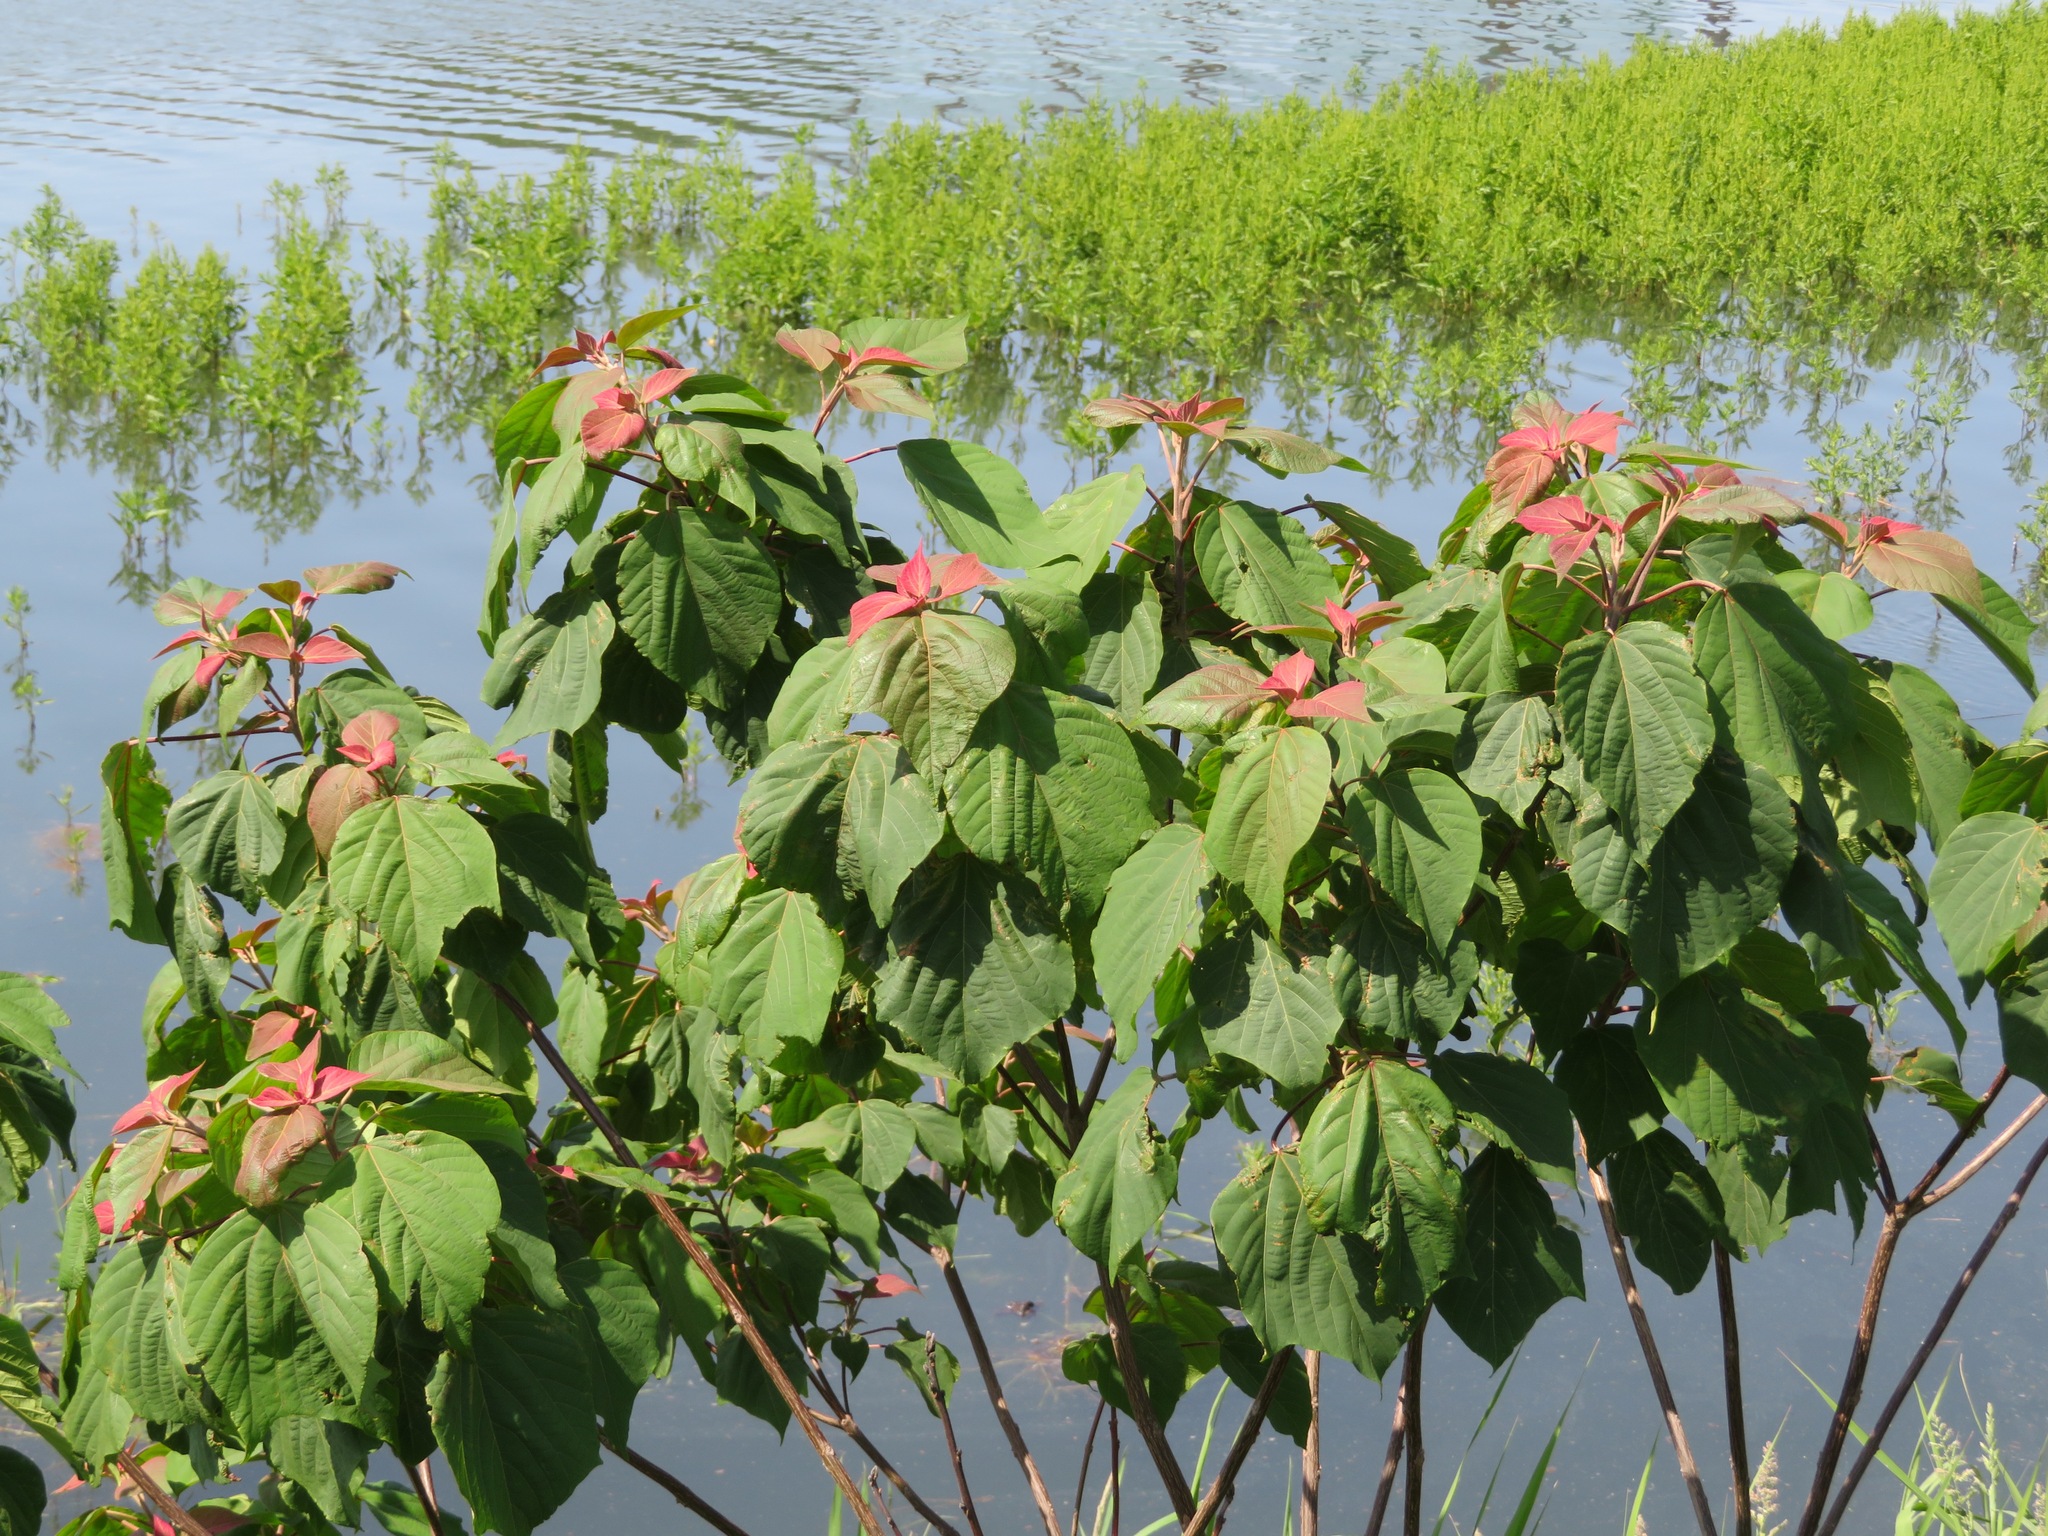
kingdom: Plantae
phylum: Tracheophyta
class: Magnoliopsida
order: Malpighiales
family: Euphorbiaceae
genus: Mallotus
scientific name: Mallotus japonicus
